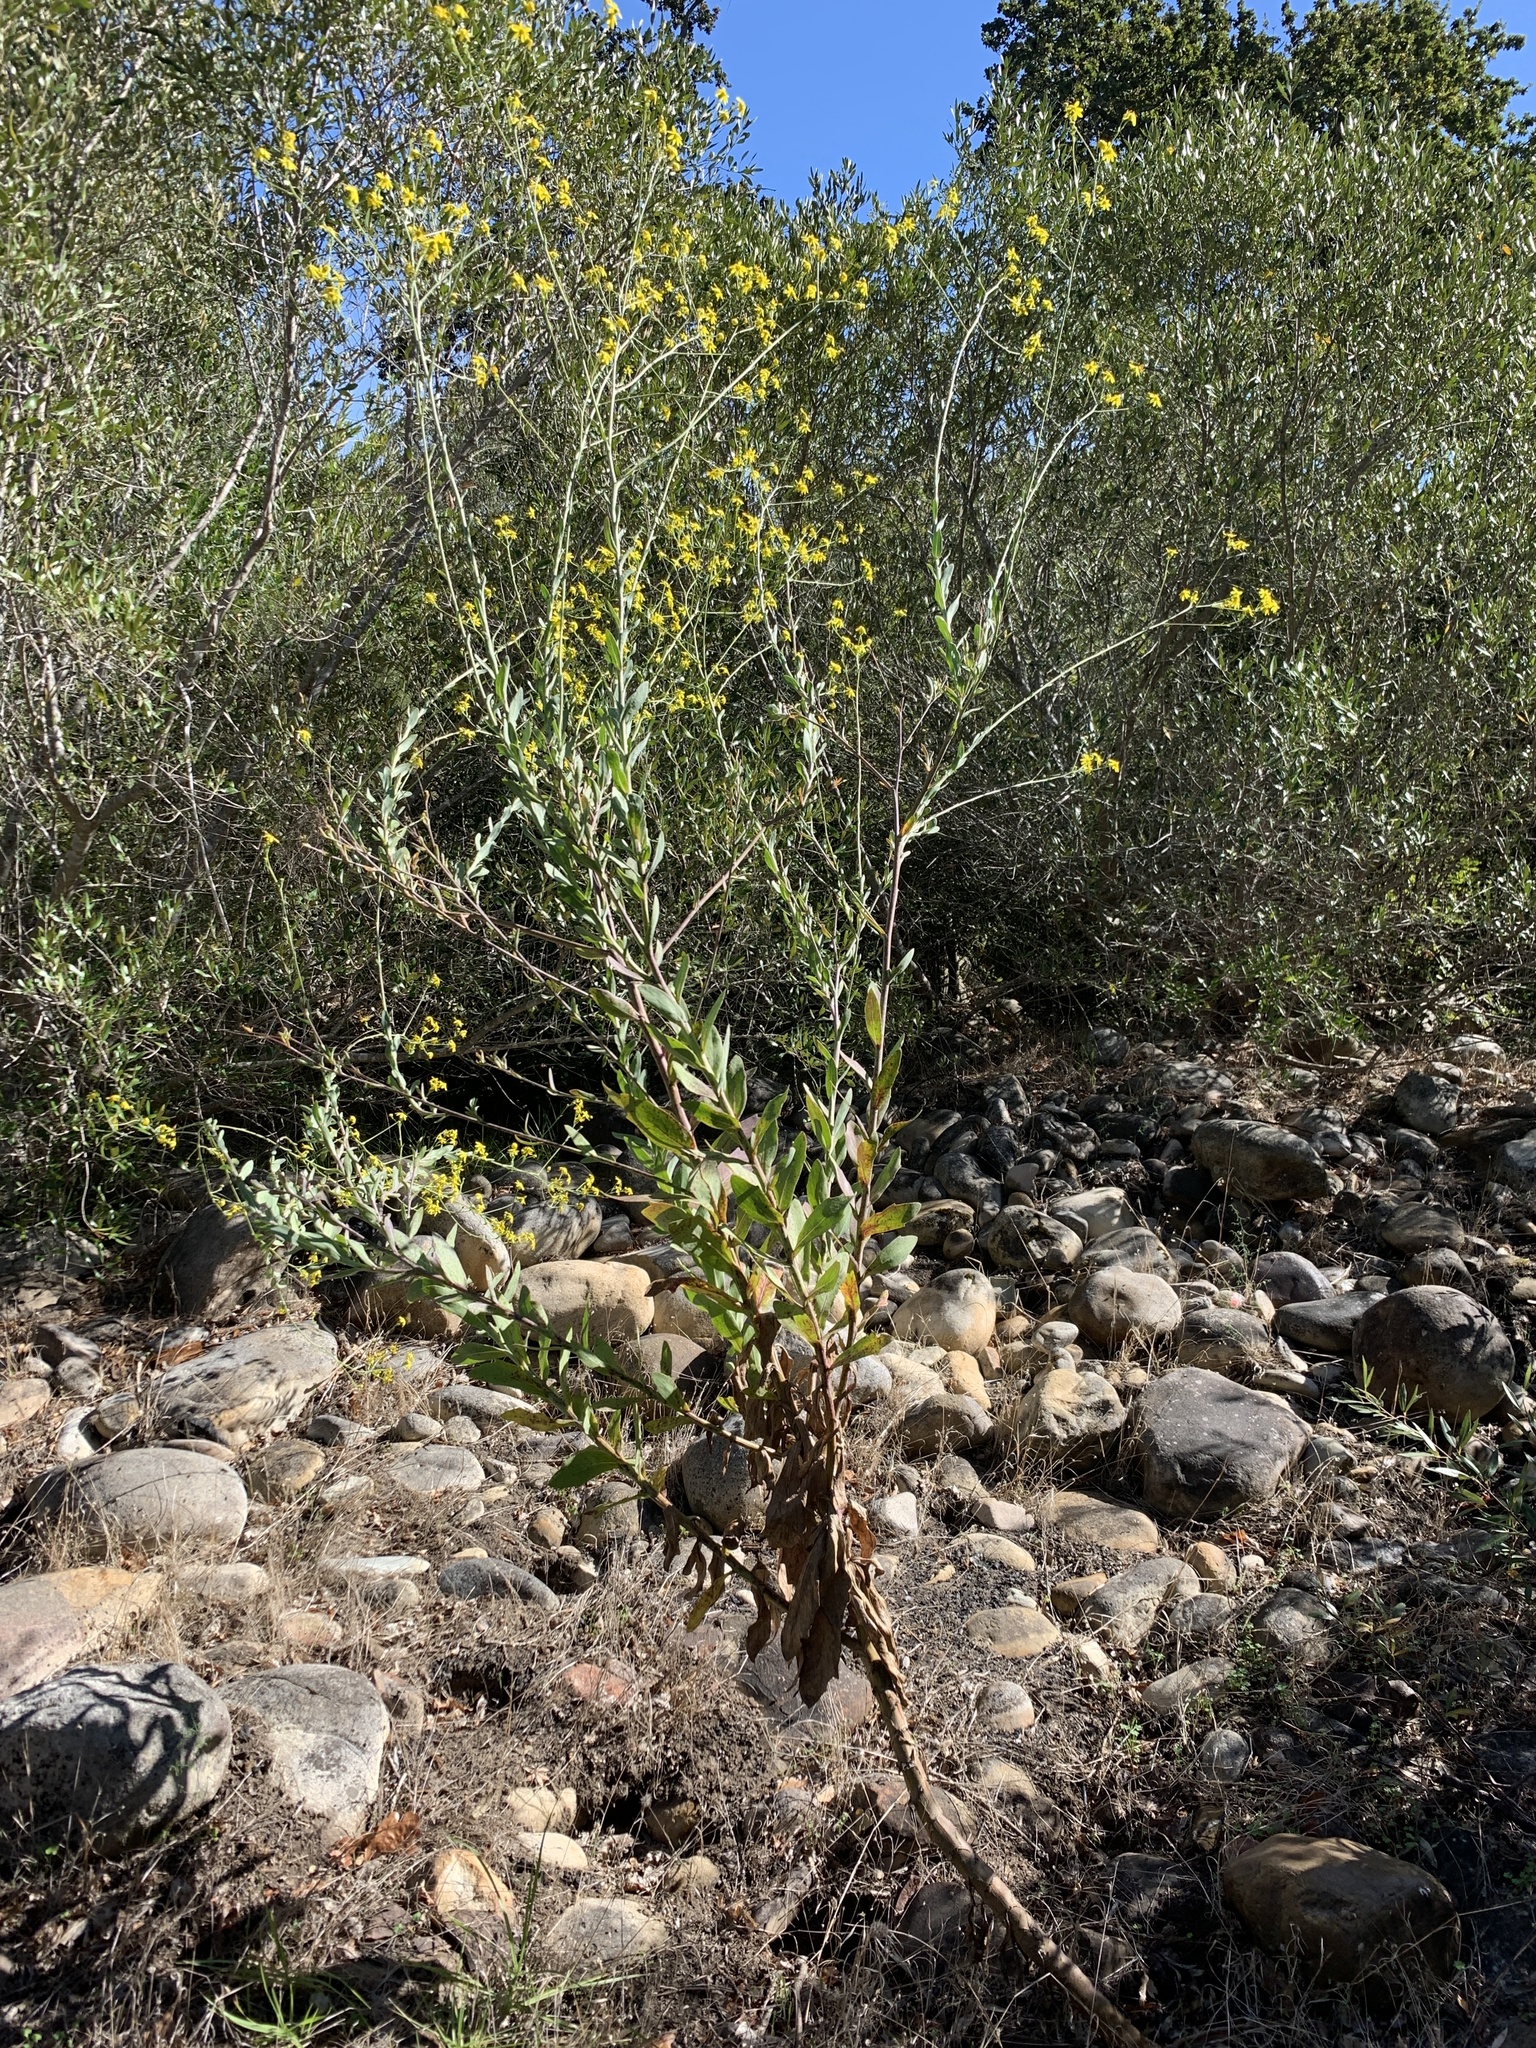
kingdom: Plantae
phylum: Tracheophyta
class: Magnoliopsida
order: Asterales
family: Asteraceae
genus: Othonna
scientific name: Othonna quinquedentata
